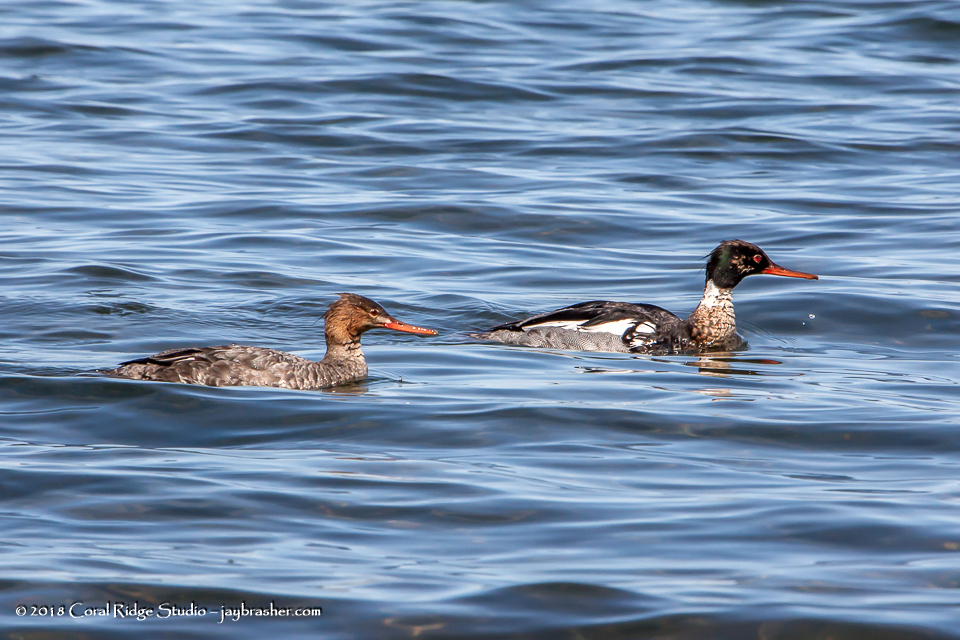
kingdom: Animalia
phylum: Chordata
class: Aves
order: Anseriformes
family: Anatidae
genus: Mergus
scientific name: Mergus serrator
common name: Red-breasted merganser
